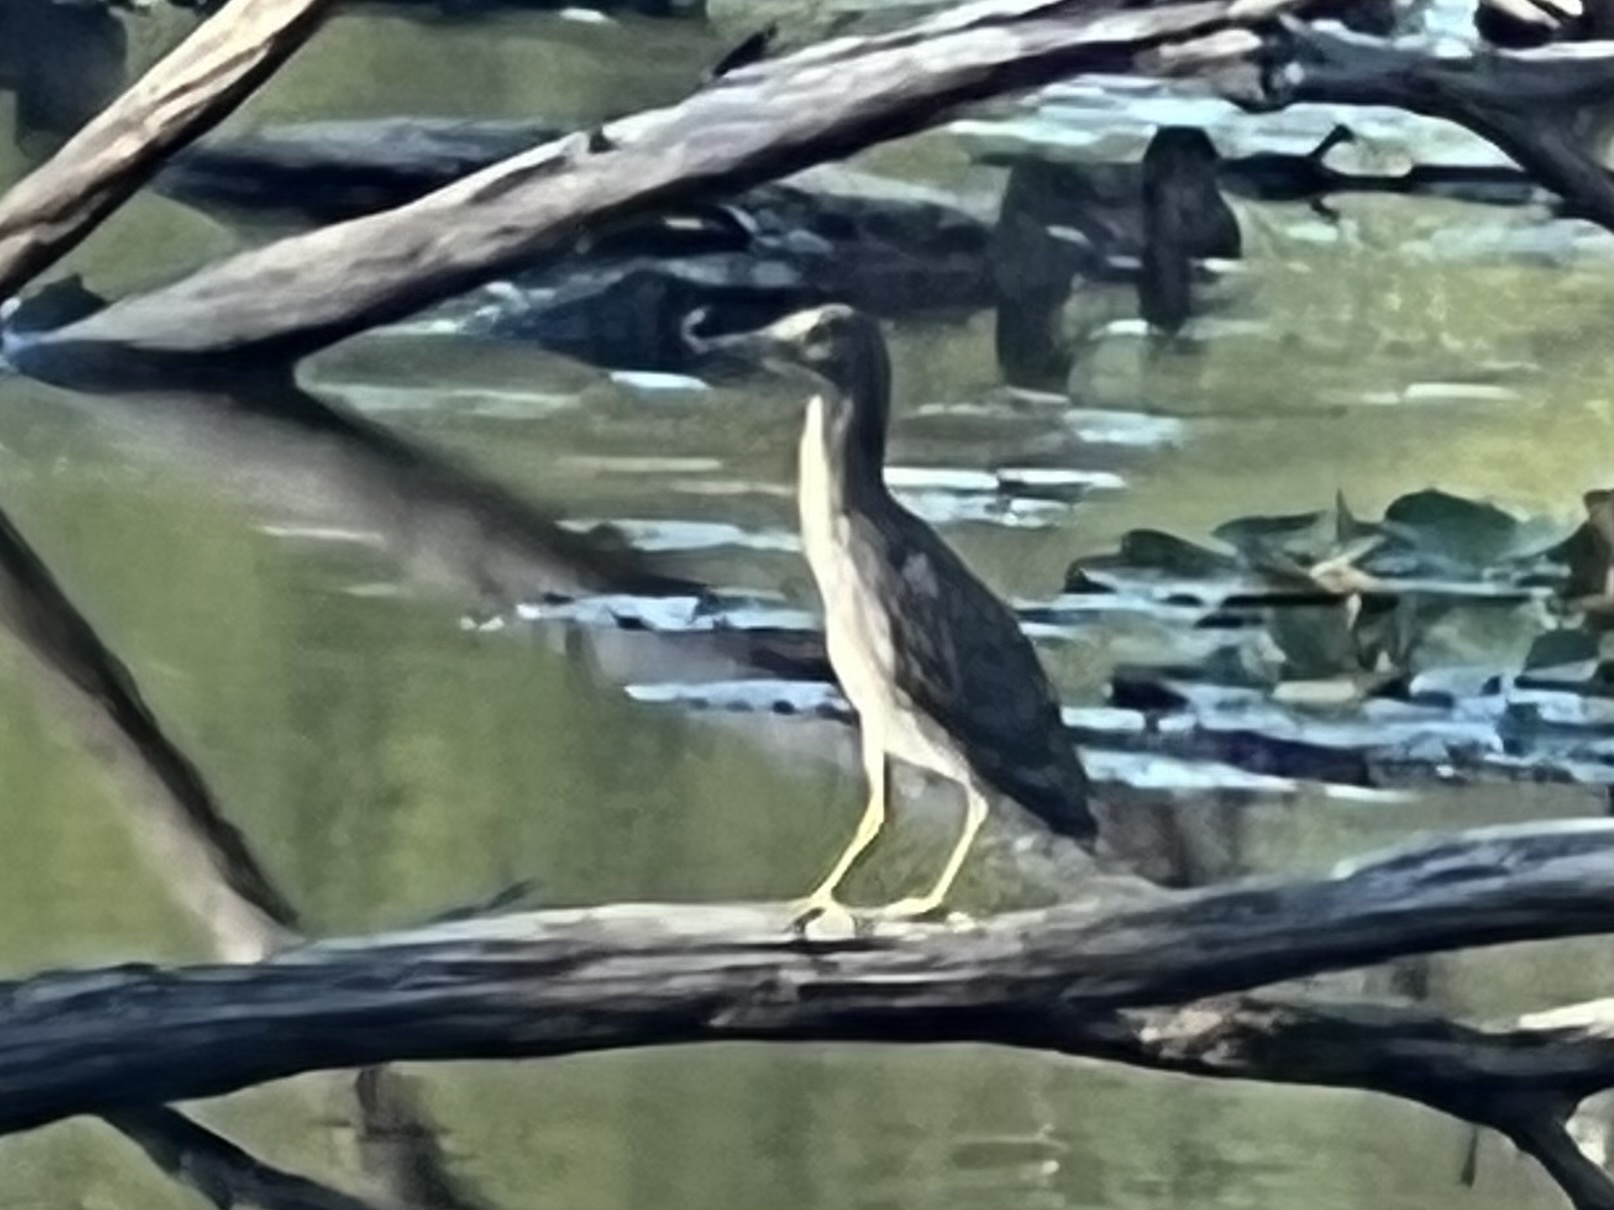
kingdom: Animalia
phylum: Chordata
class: Aves
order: Pelecaniformes
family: Ardeidae
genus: Nycticorax
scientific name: Nycticorax nycticorax
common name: Black-crowned night heron
